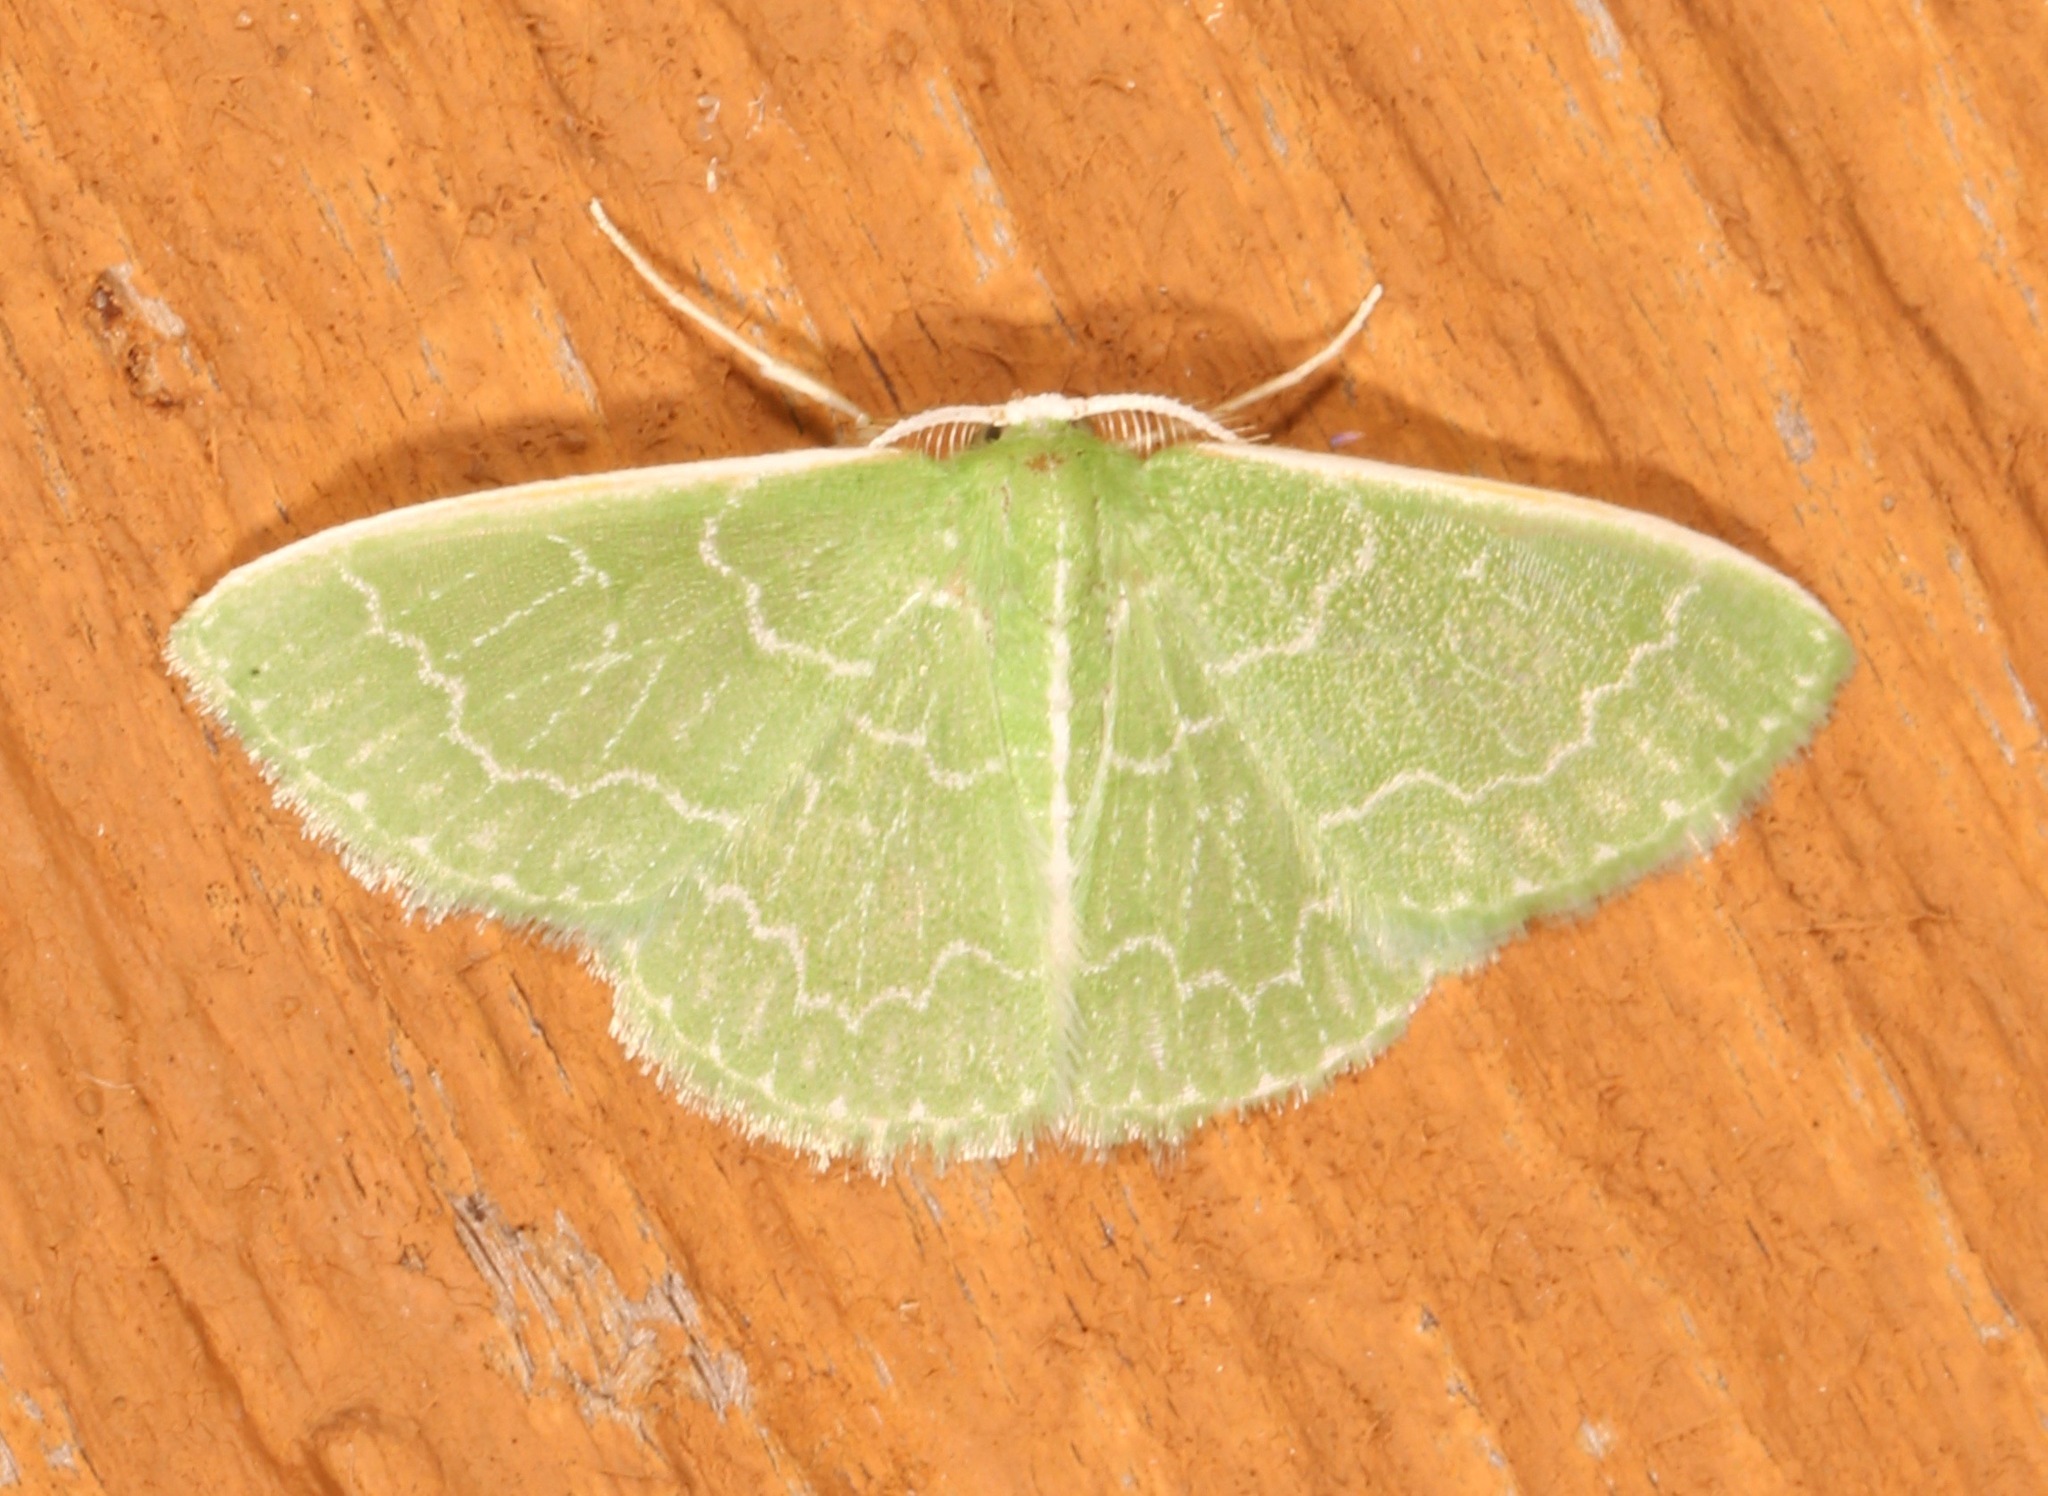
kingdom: Animalia
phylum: Arthropoda
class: Insecta
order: Lepidoptera
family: Geometridae
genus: Synchlora
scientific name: Synchlora frondaria
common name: Southern emerald
